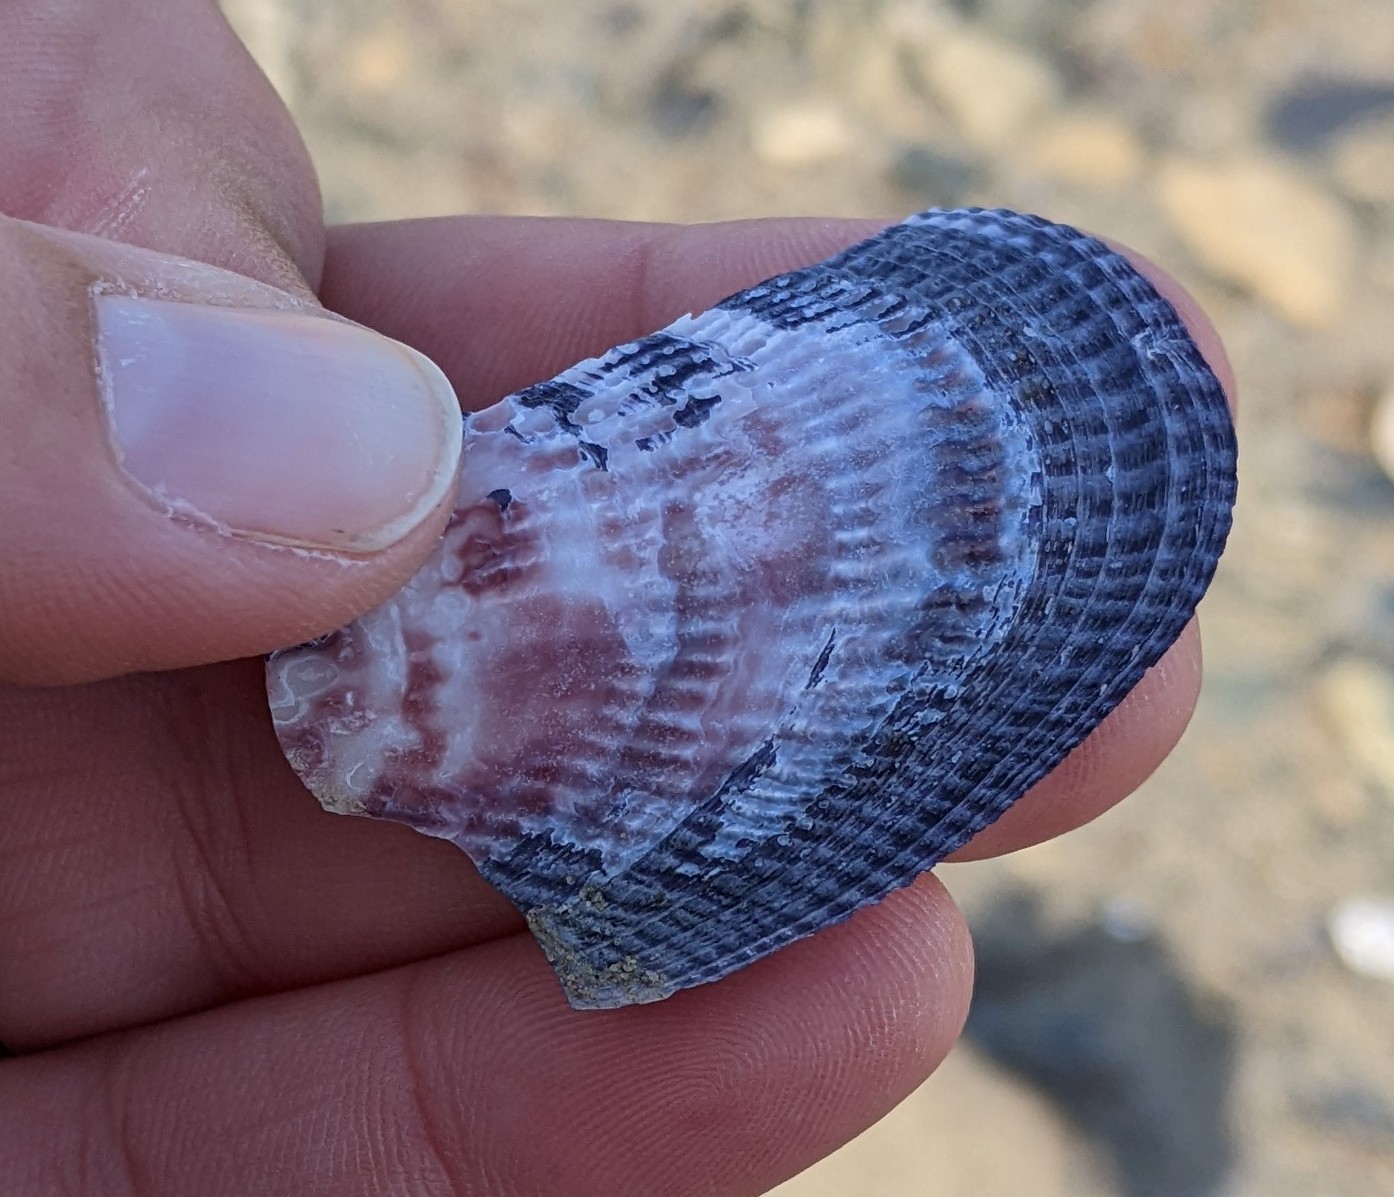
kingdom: Animalia
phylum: Mollusca
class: Bivalvia
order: Mytilida
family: Mytilidae
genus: Geukensia
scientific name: Geukensia demissa
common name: Ribbed mussel
